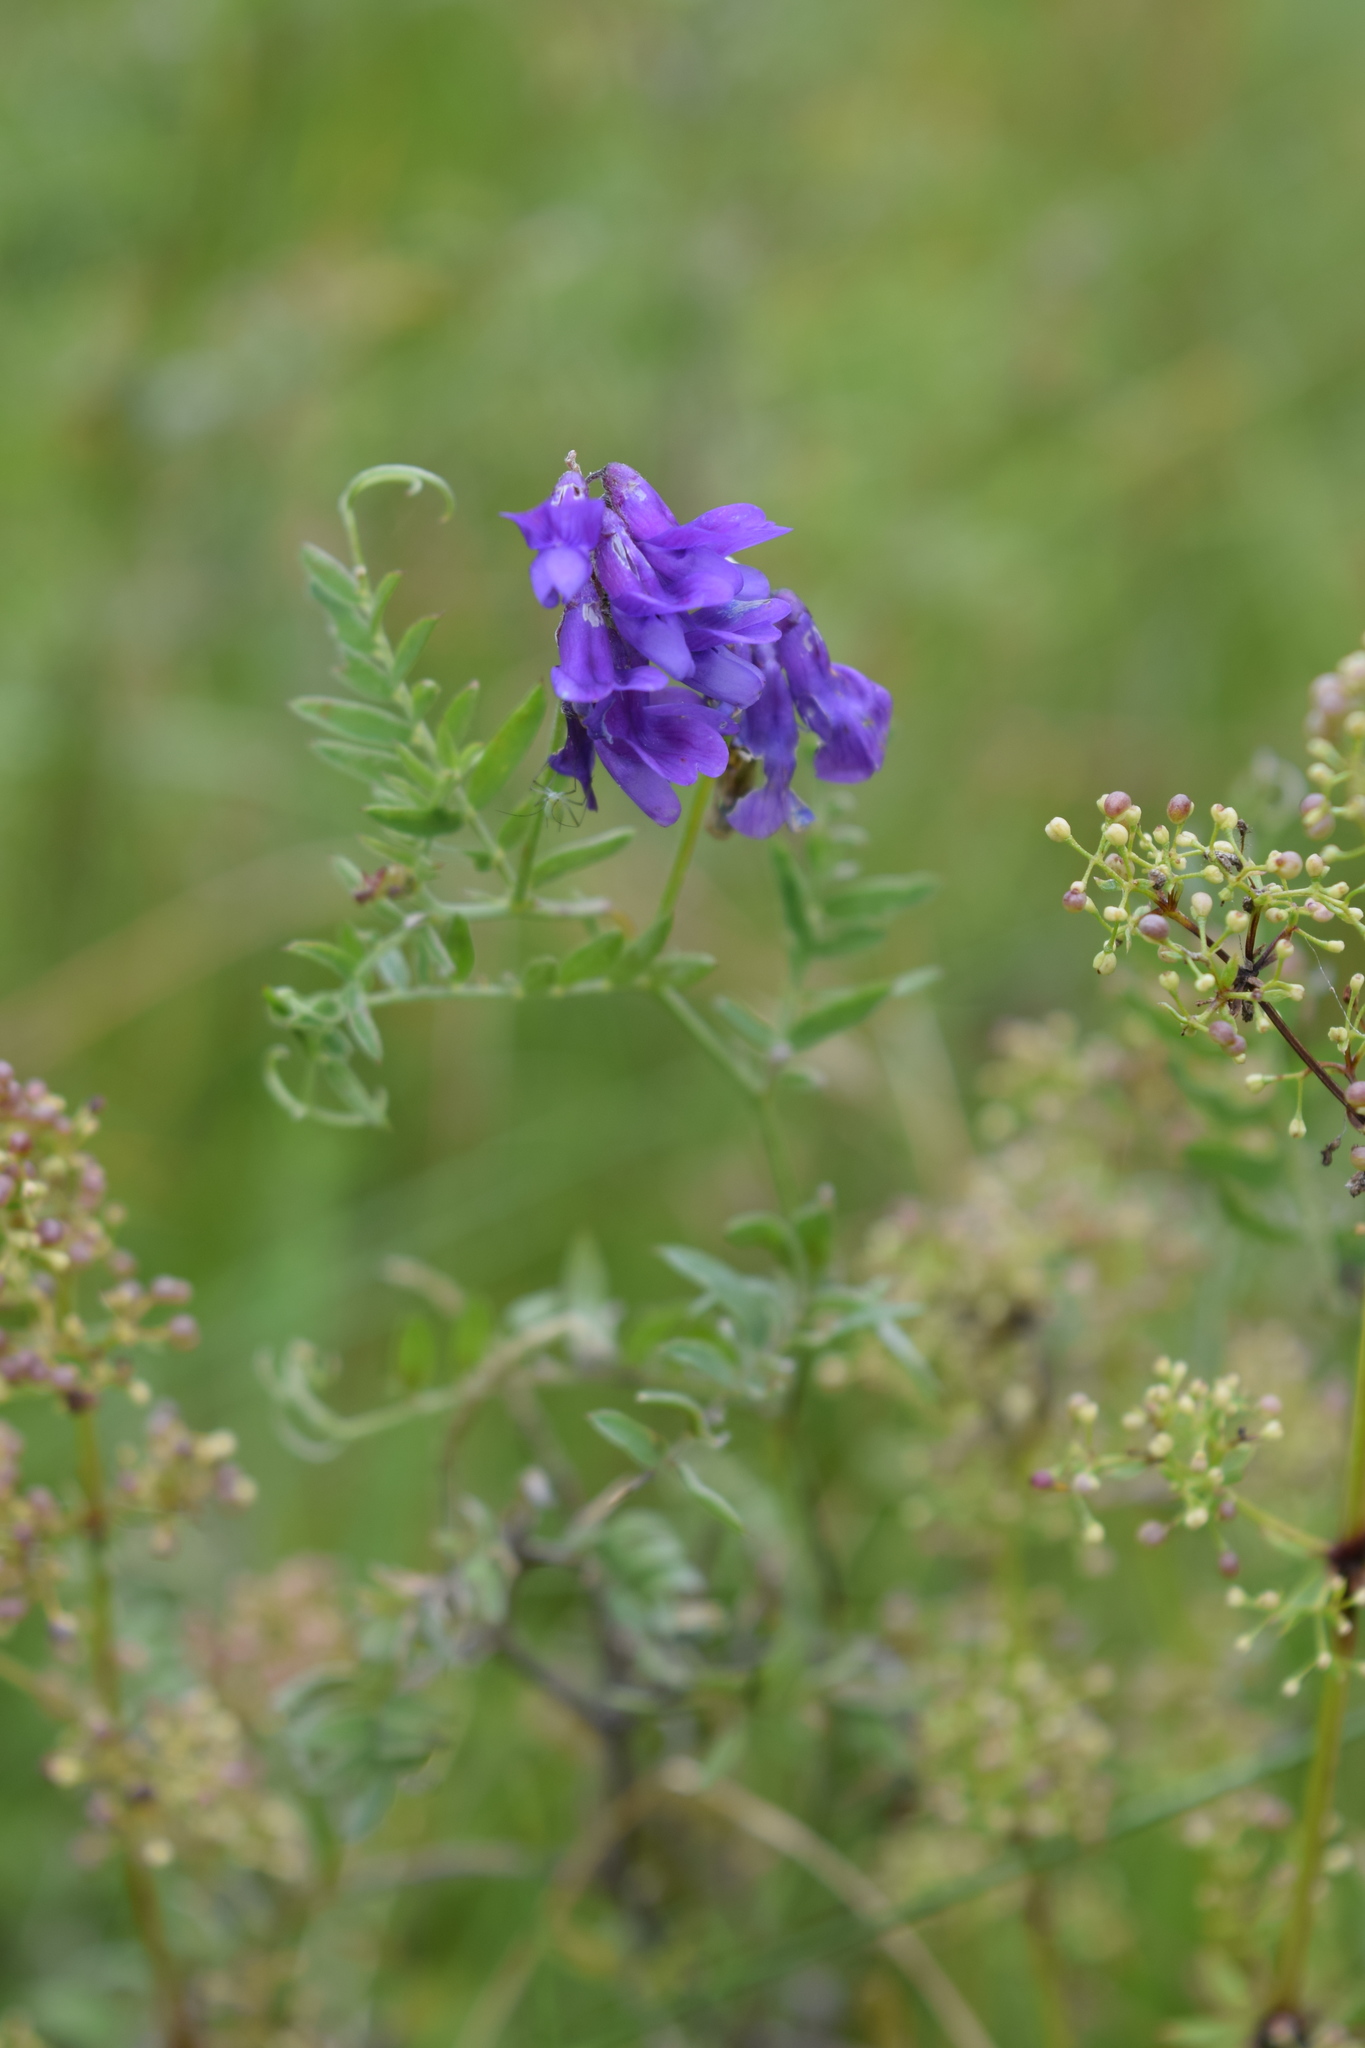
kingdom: Plantae
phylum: Tracheophyta
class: Magnoliopsida
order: Fabales
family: Fabaceae
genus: Vicia
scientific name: Vicia cracca
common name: Bird vetch
